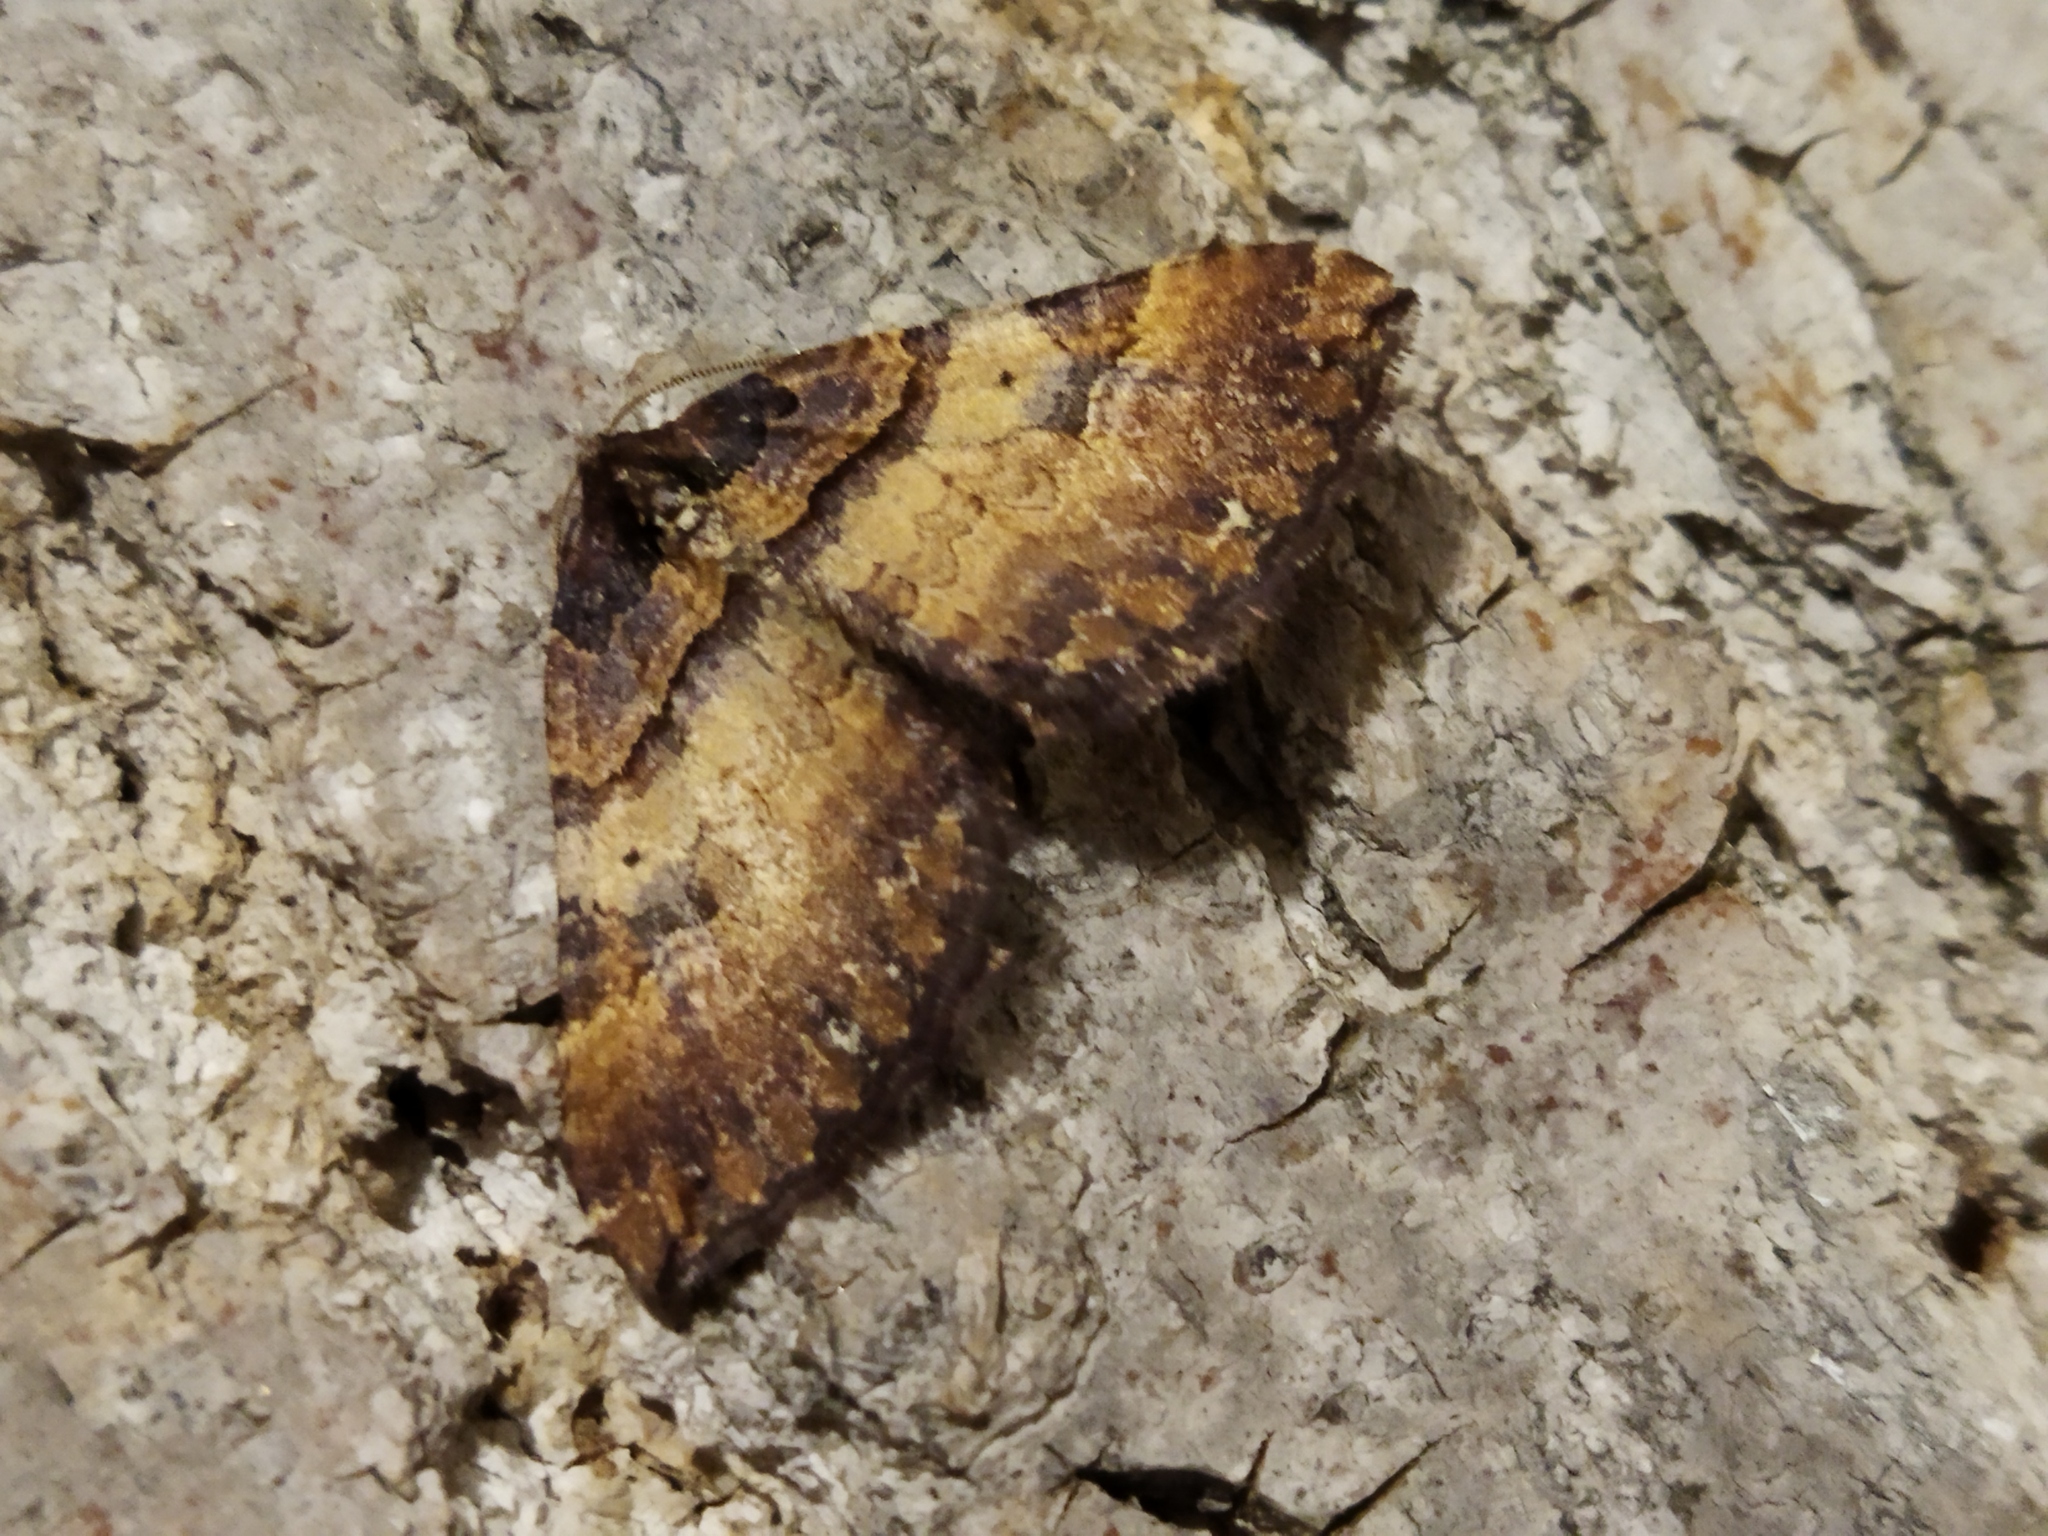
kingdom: Animalia
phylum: Arthropoda
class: Insecta
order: Lepidoptera
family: Geometridae
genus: Anticlea
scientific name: Anticlea badiata
